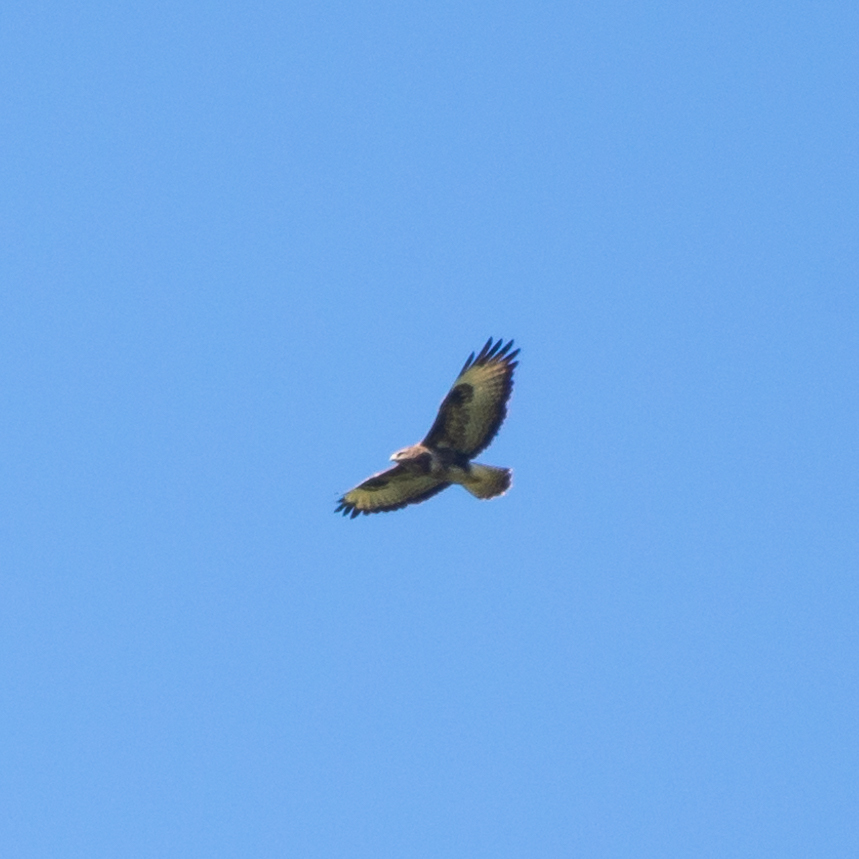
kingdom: Animalia
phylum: Chordata
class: Aves
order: Accipitriformes
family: Accipitridae
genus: Buteo
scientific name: Buteo buteo
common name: Common buzzard
